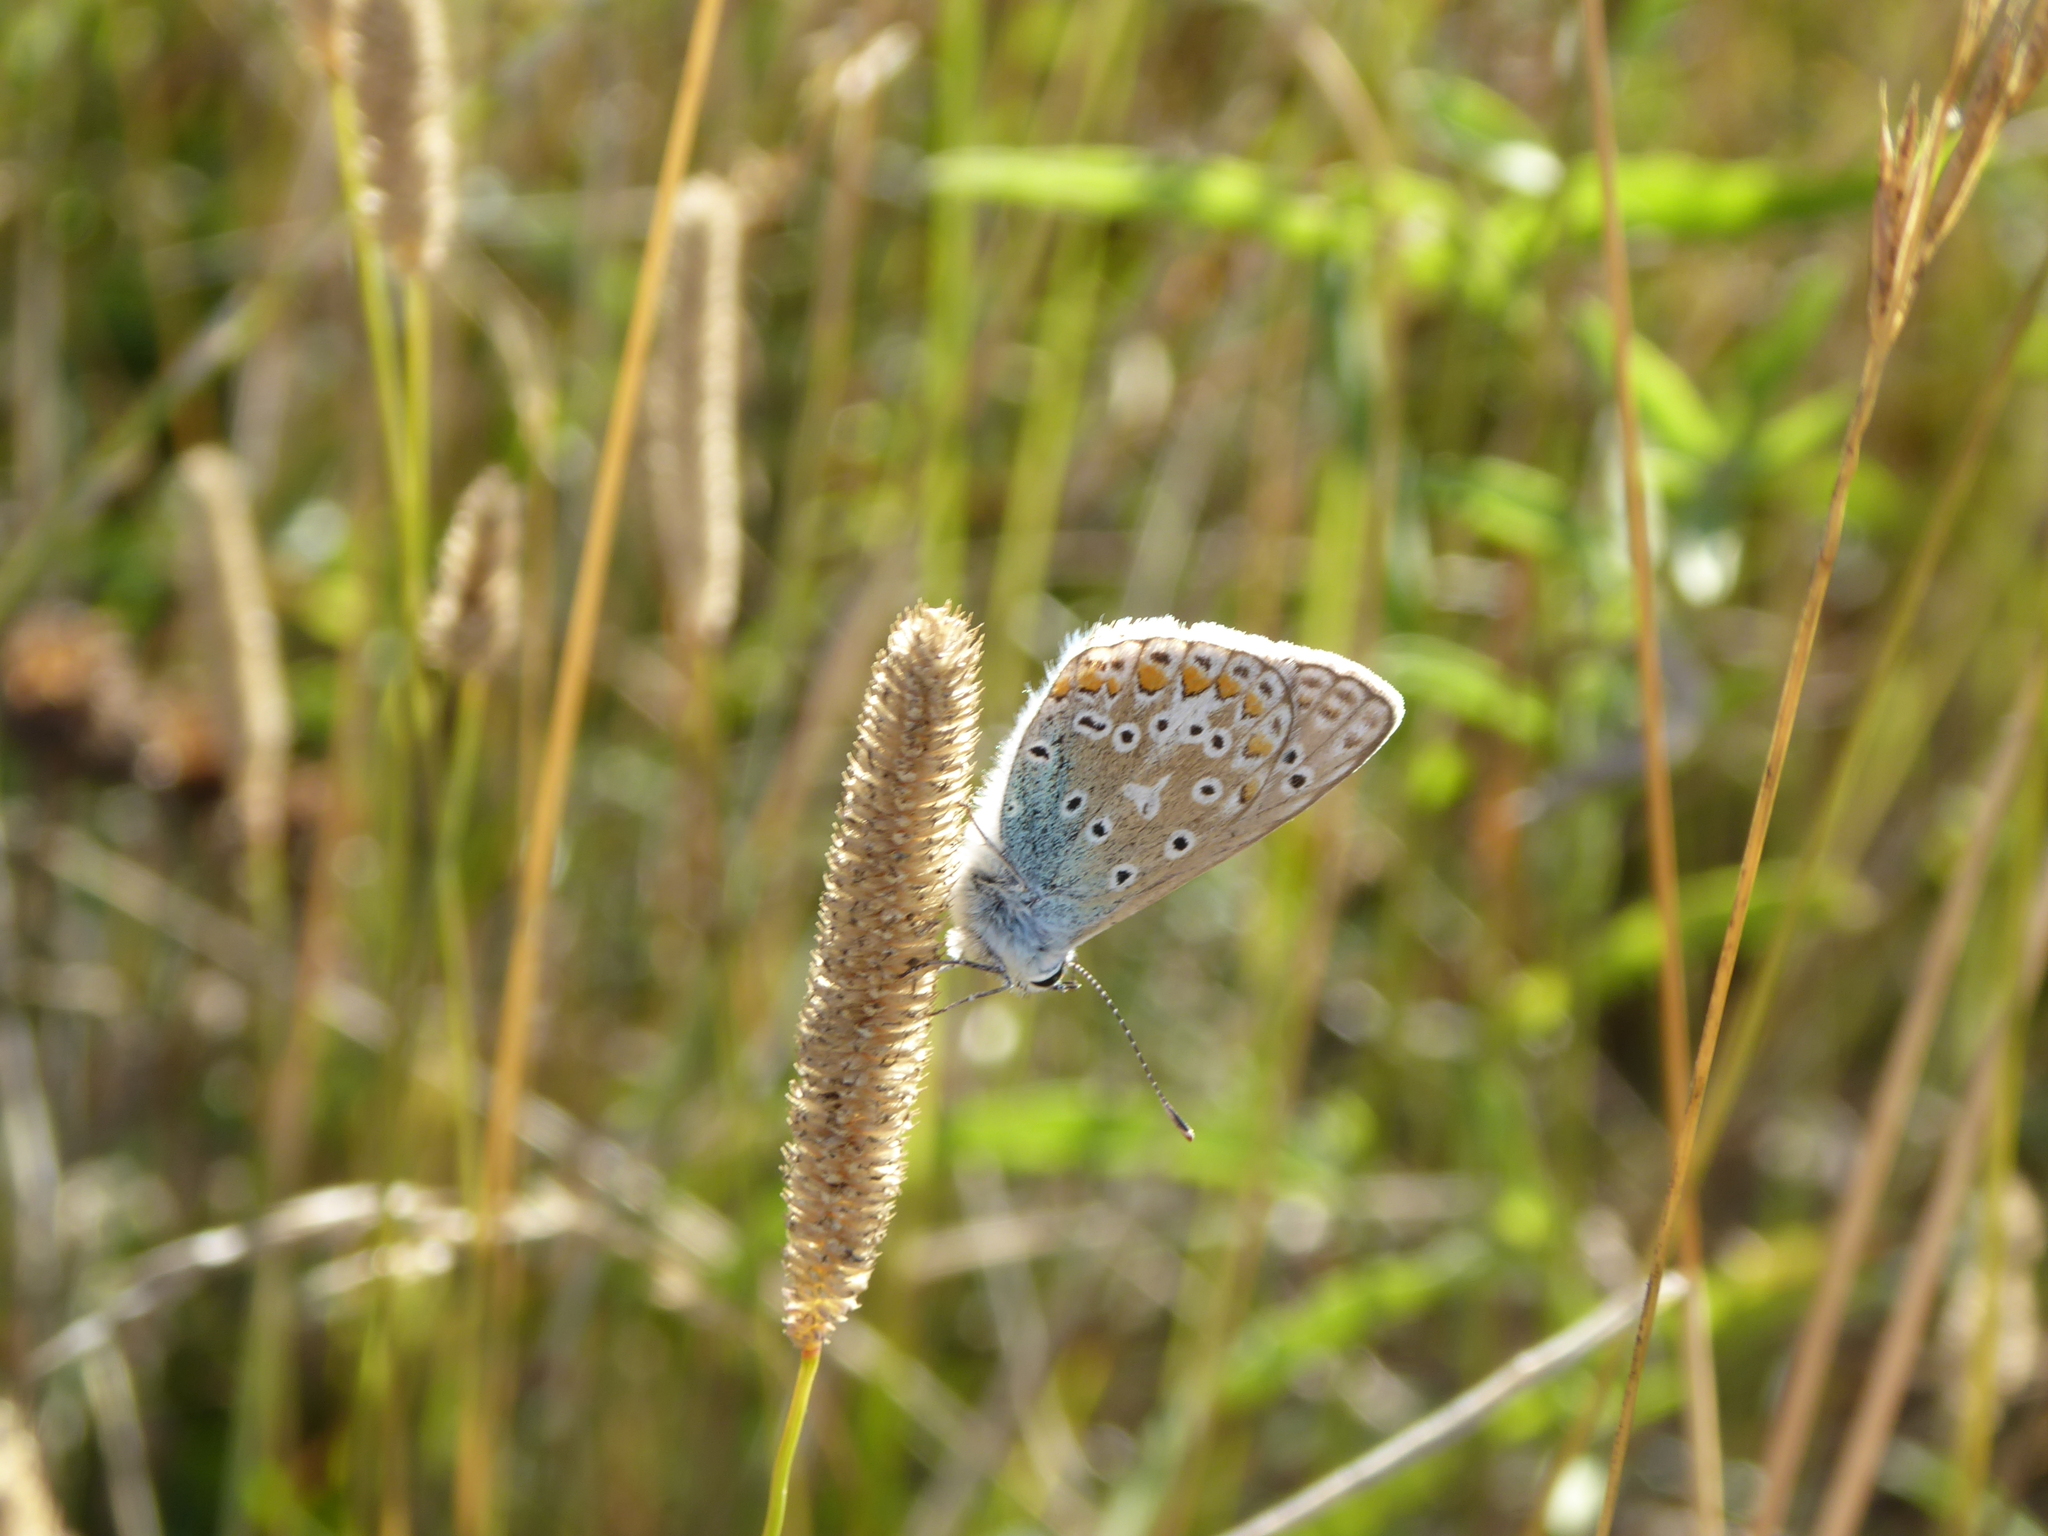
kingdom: Animalia
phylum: Arthropoda
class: Insecta
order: Lepidoptera
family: Lycaenidae
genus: Polyommatus
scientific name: Polyommatus icarus
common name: Common blue
